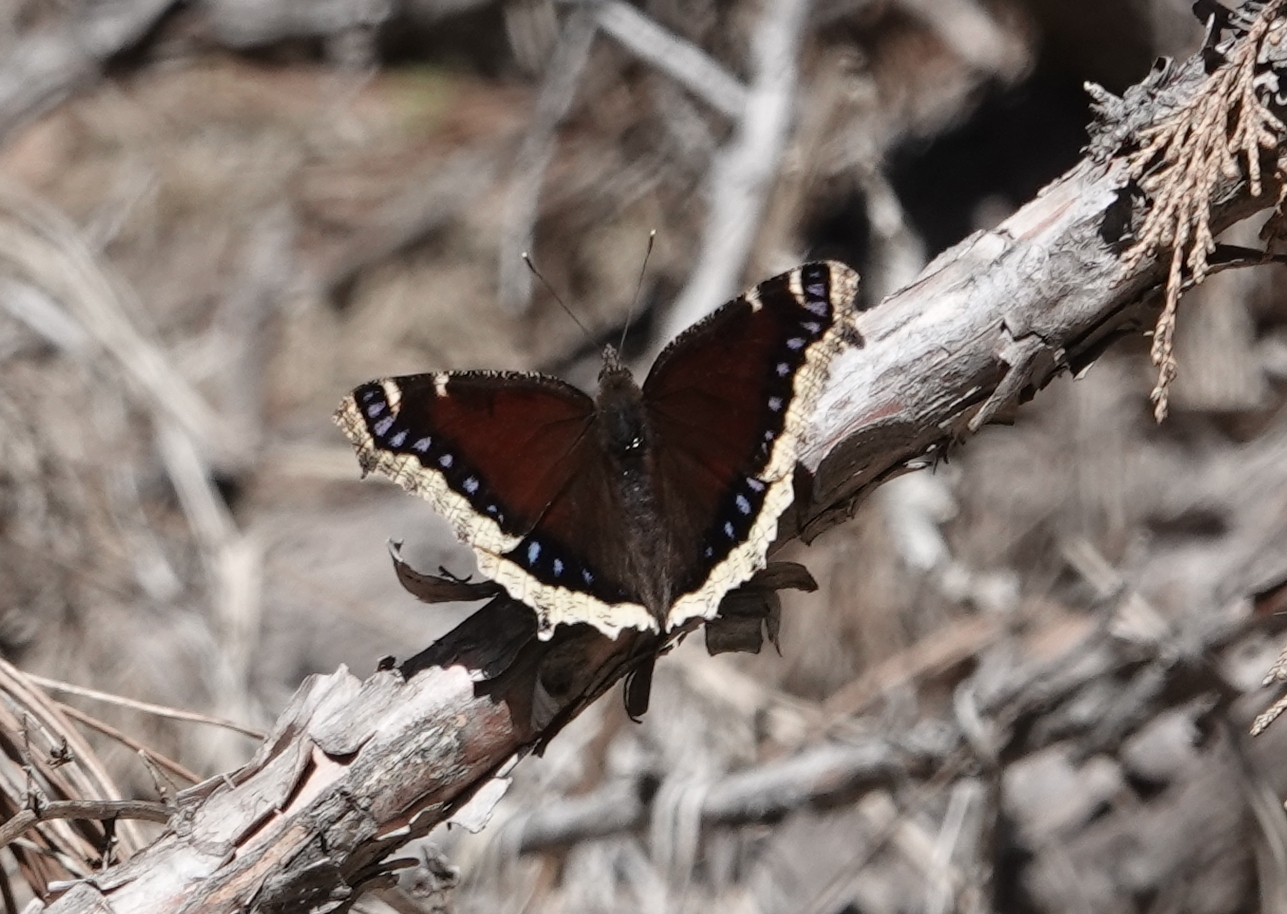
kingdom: Animalia
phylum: Arthropoda
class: Insecta
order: Lepidoptera
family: Nymphalidae
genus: Nymphalis
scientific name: Nymphalis antiopa
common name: Camberwell beauty
